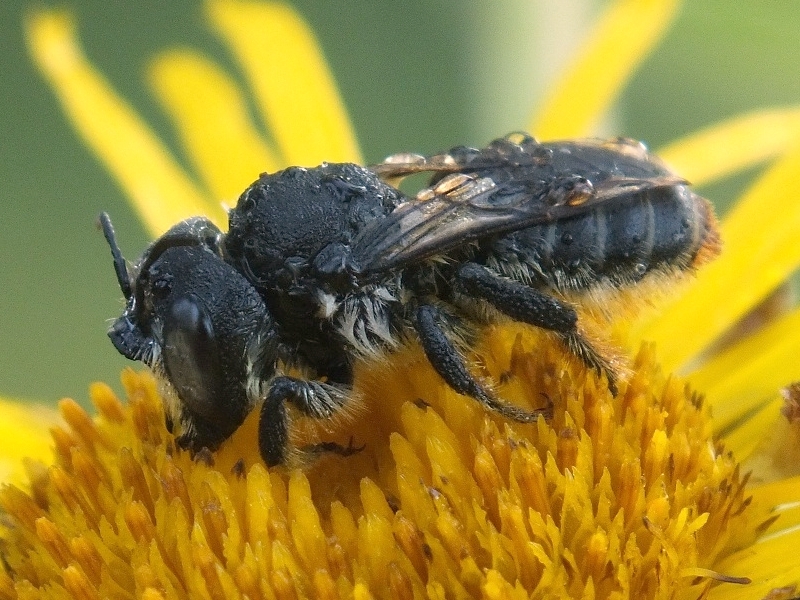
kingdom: Animalia
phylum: Arthropoda
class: Insecta
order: Hymenoptera
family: Megachilidae
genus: Lithurgus
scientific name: Lithurgus cornutus
